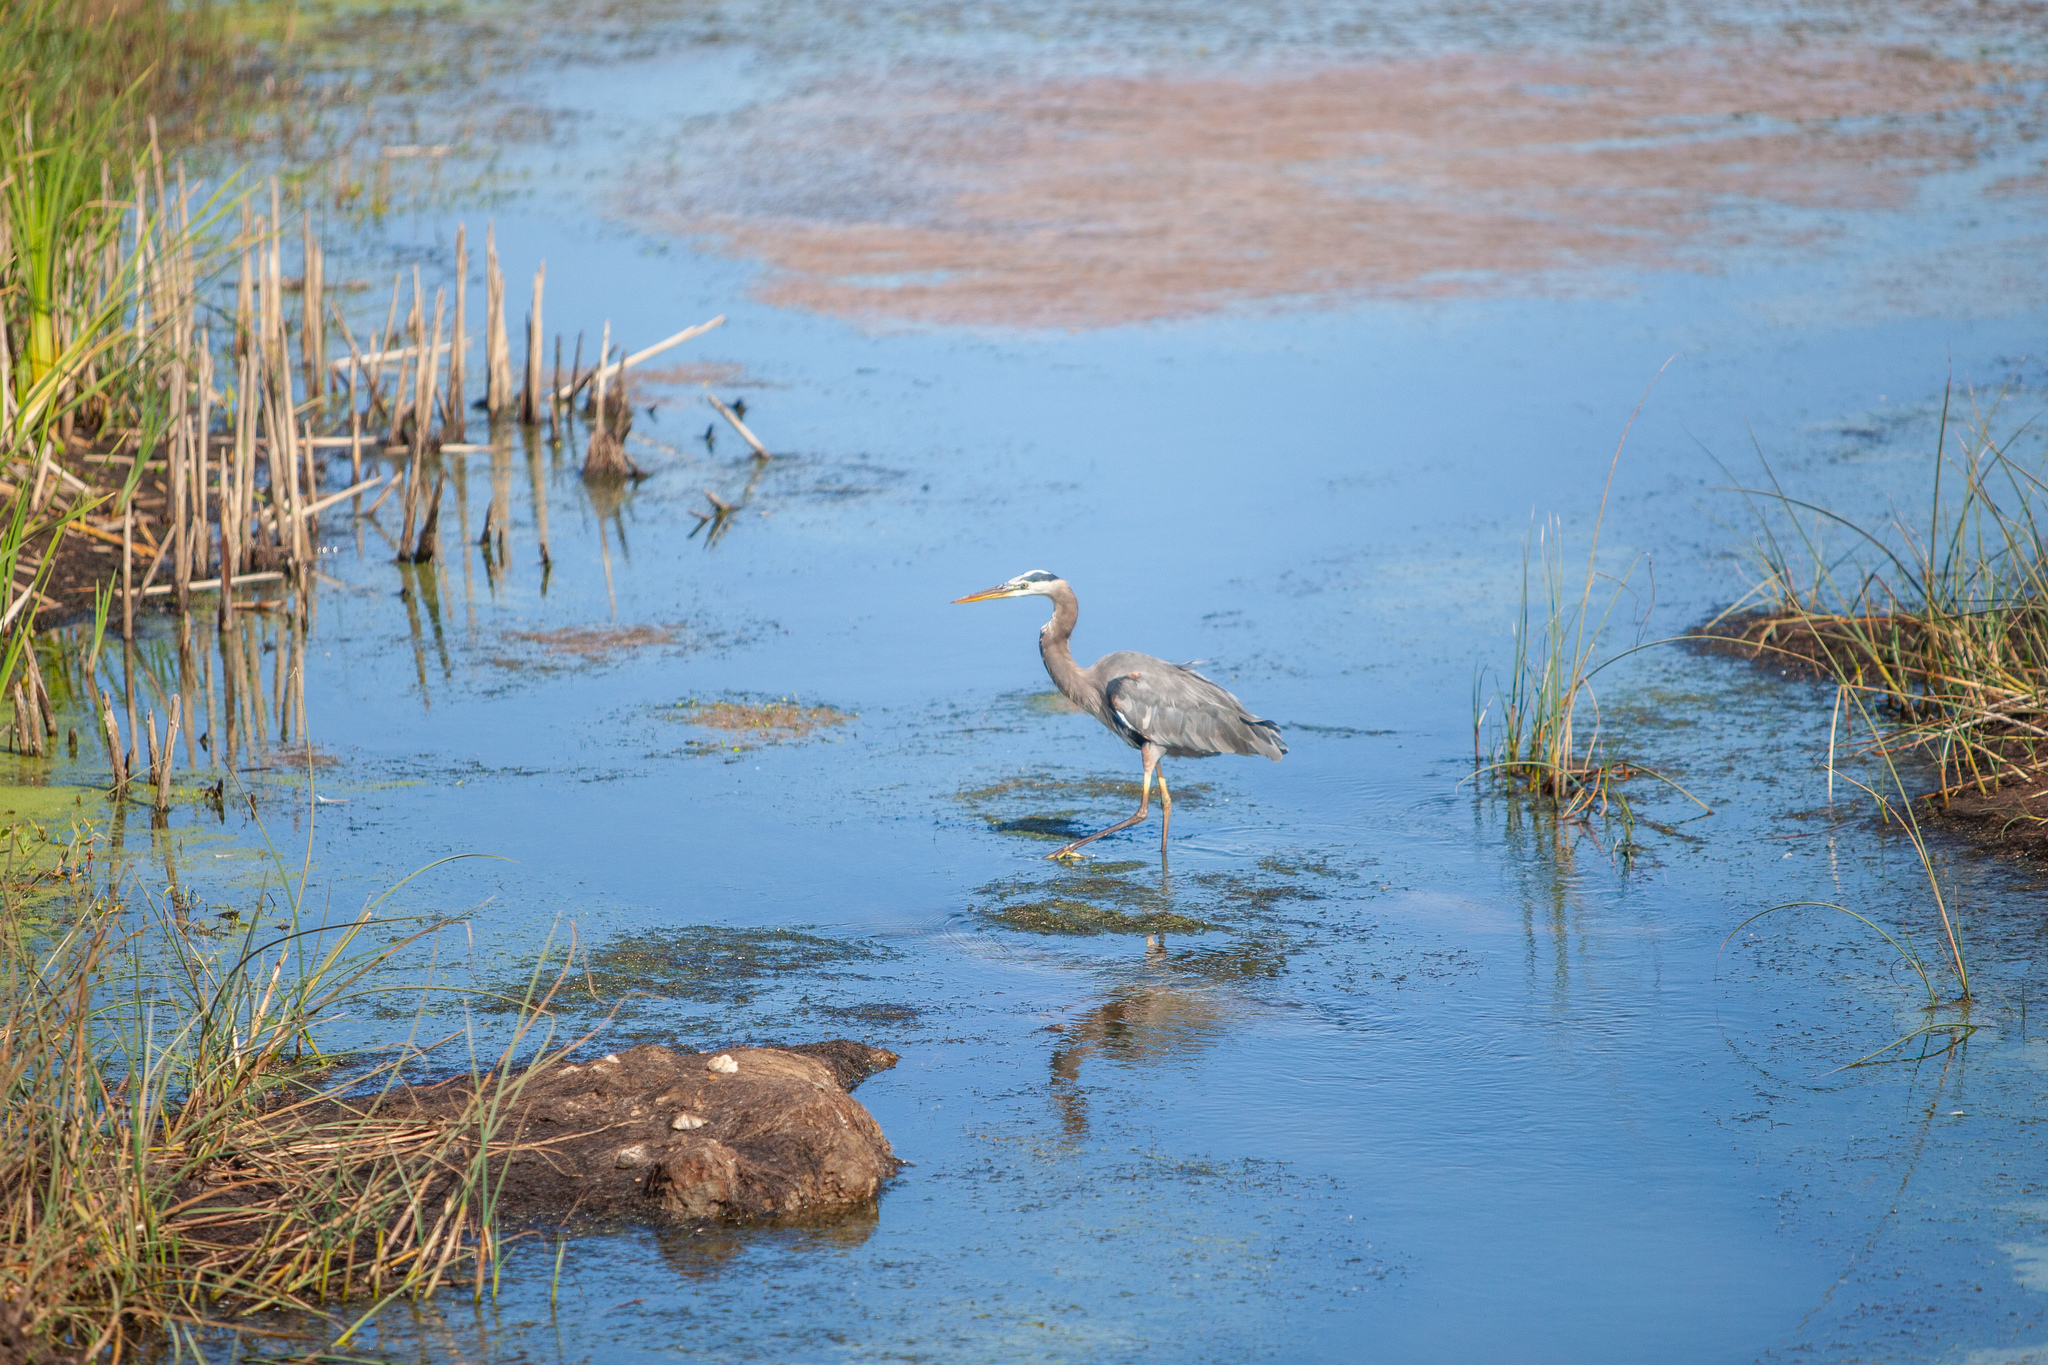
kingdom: Animalia
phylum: Chordata
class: Aves
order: Pelecaniformes
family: Ardeidae
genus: Ardea
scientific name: Ardea herodias
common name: Great blue heron
